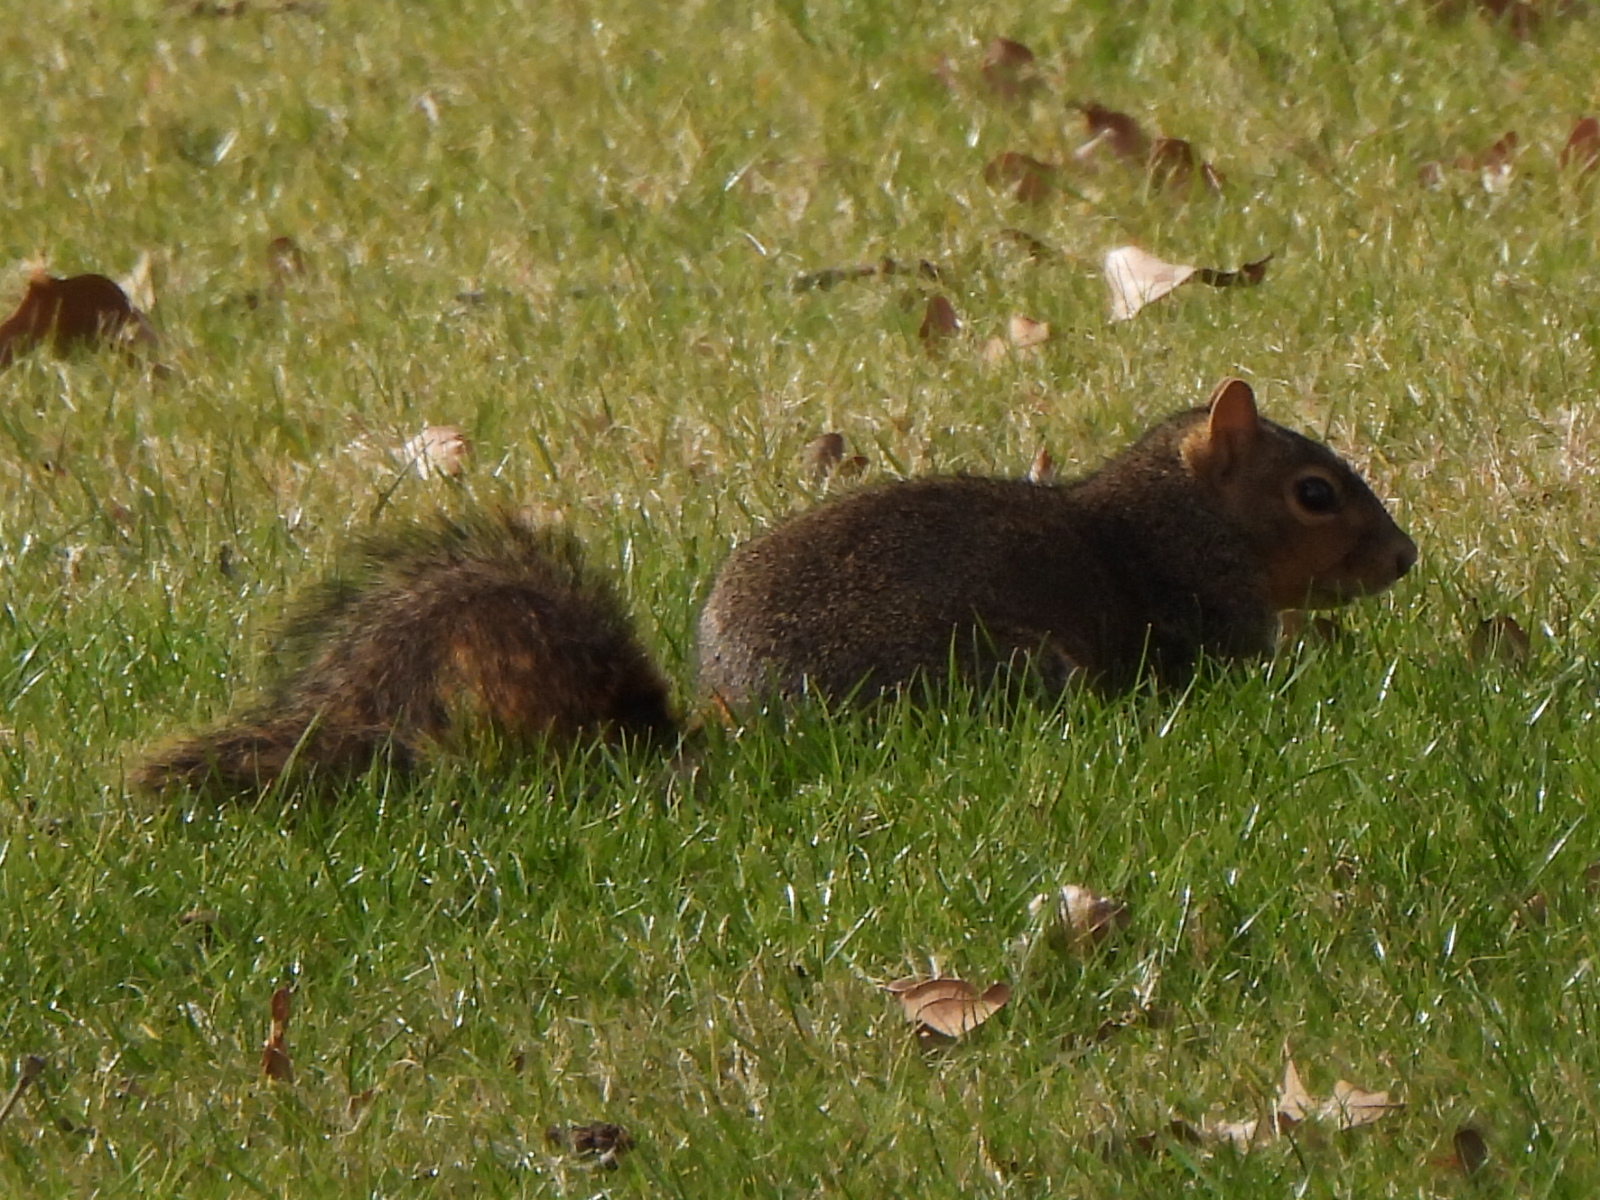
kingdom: Animalia
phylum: Chordata
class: Mammalia
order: Rodentia
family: Sciuridae
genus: Sciurus
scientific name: Sciurus niger
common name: Fox squirrel
